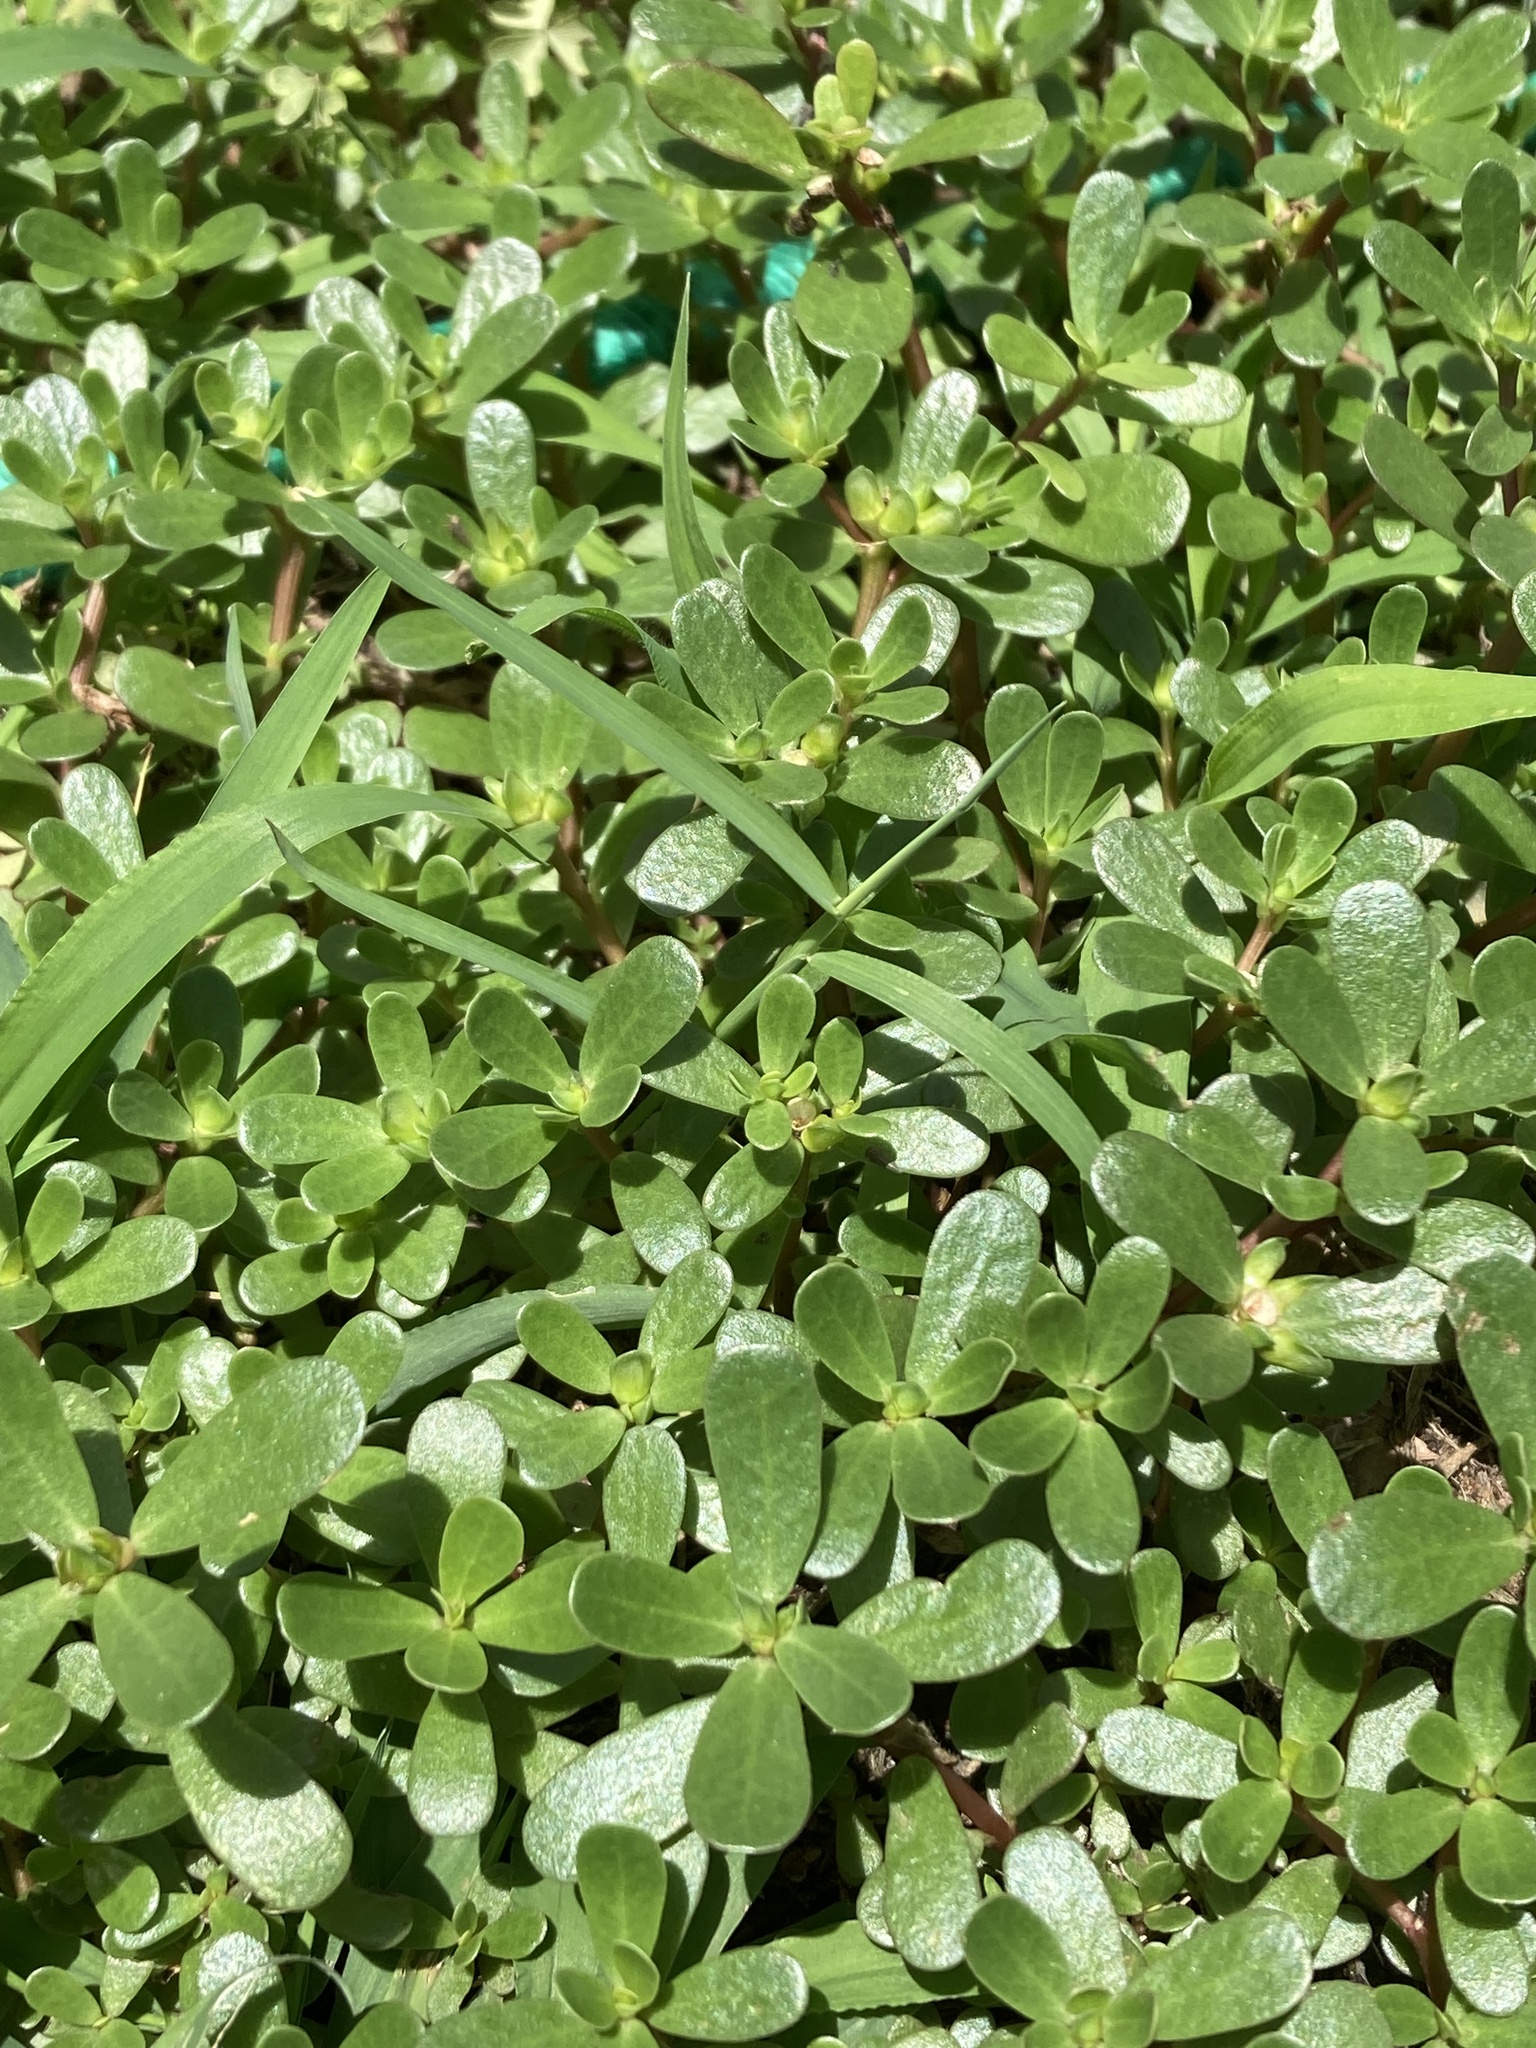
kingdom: Plantae
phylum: Tracheophyta
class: Magnoliopsida
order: Caryophyllales
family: Portulacaceae
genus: Portulaca
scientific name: Portulaca oleracea
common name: Common purslane
